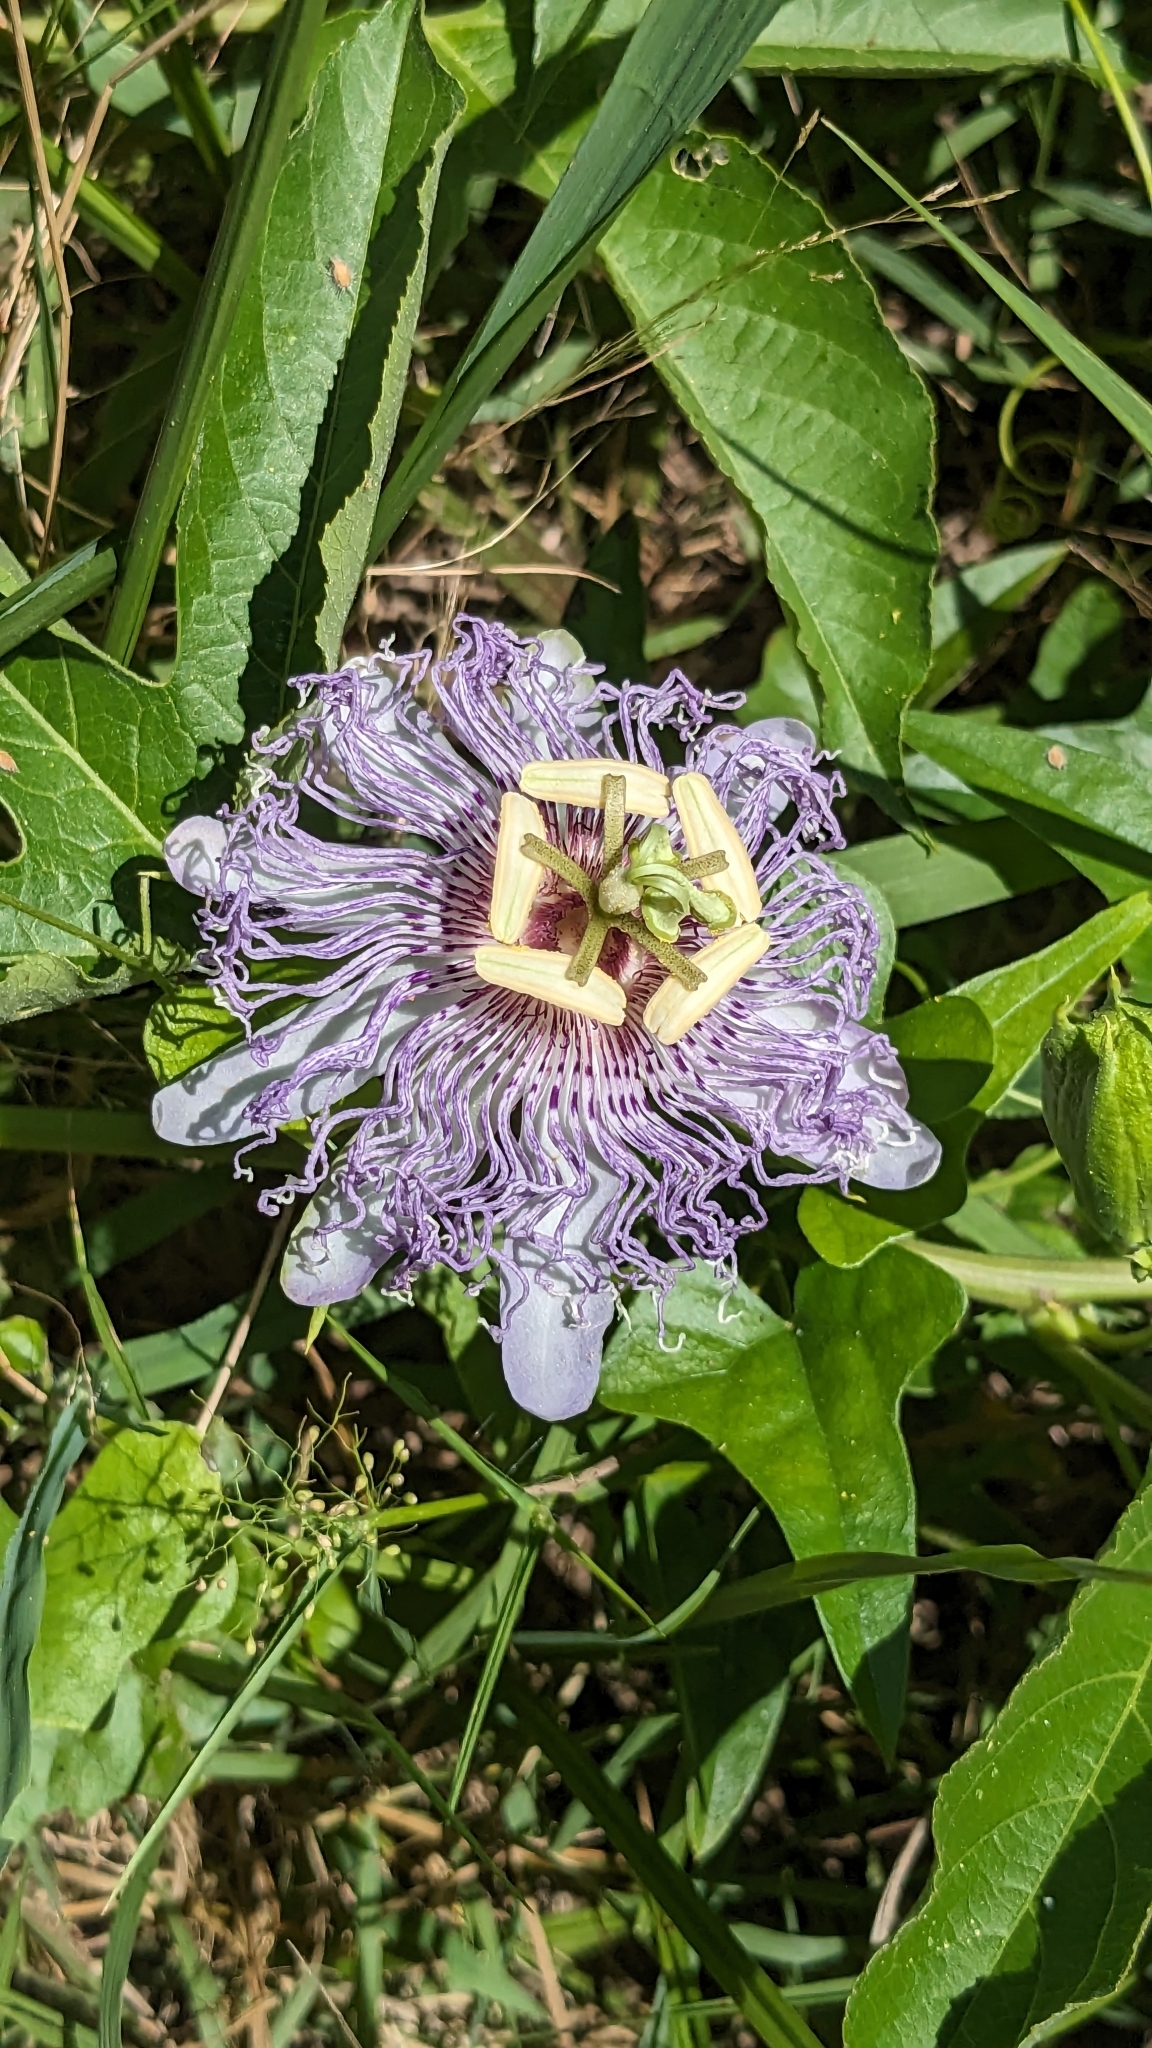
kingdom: Plantae
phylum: Tracheophyta
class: Magnoliopsida
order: Malpighiales
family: Passifloraceae
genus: Passiflora
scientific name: Passiflora incarnata
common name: Apricot-vine
